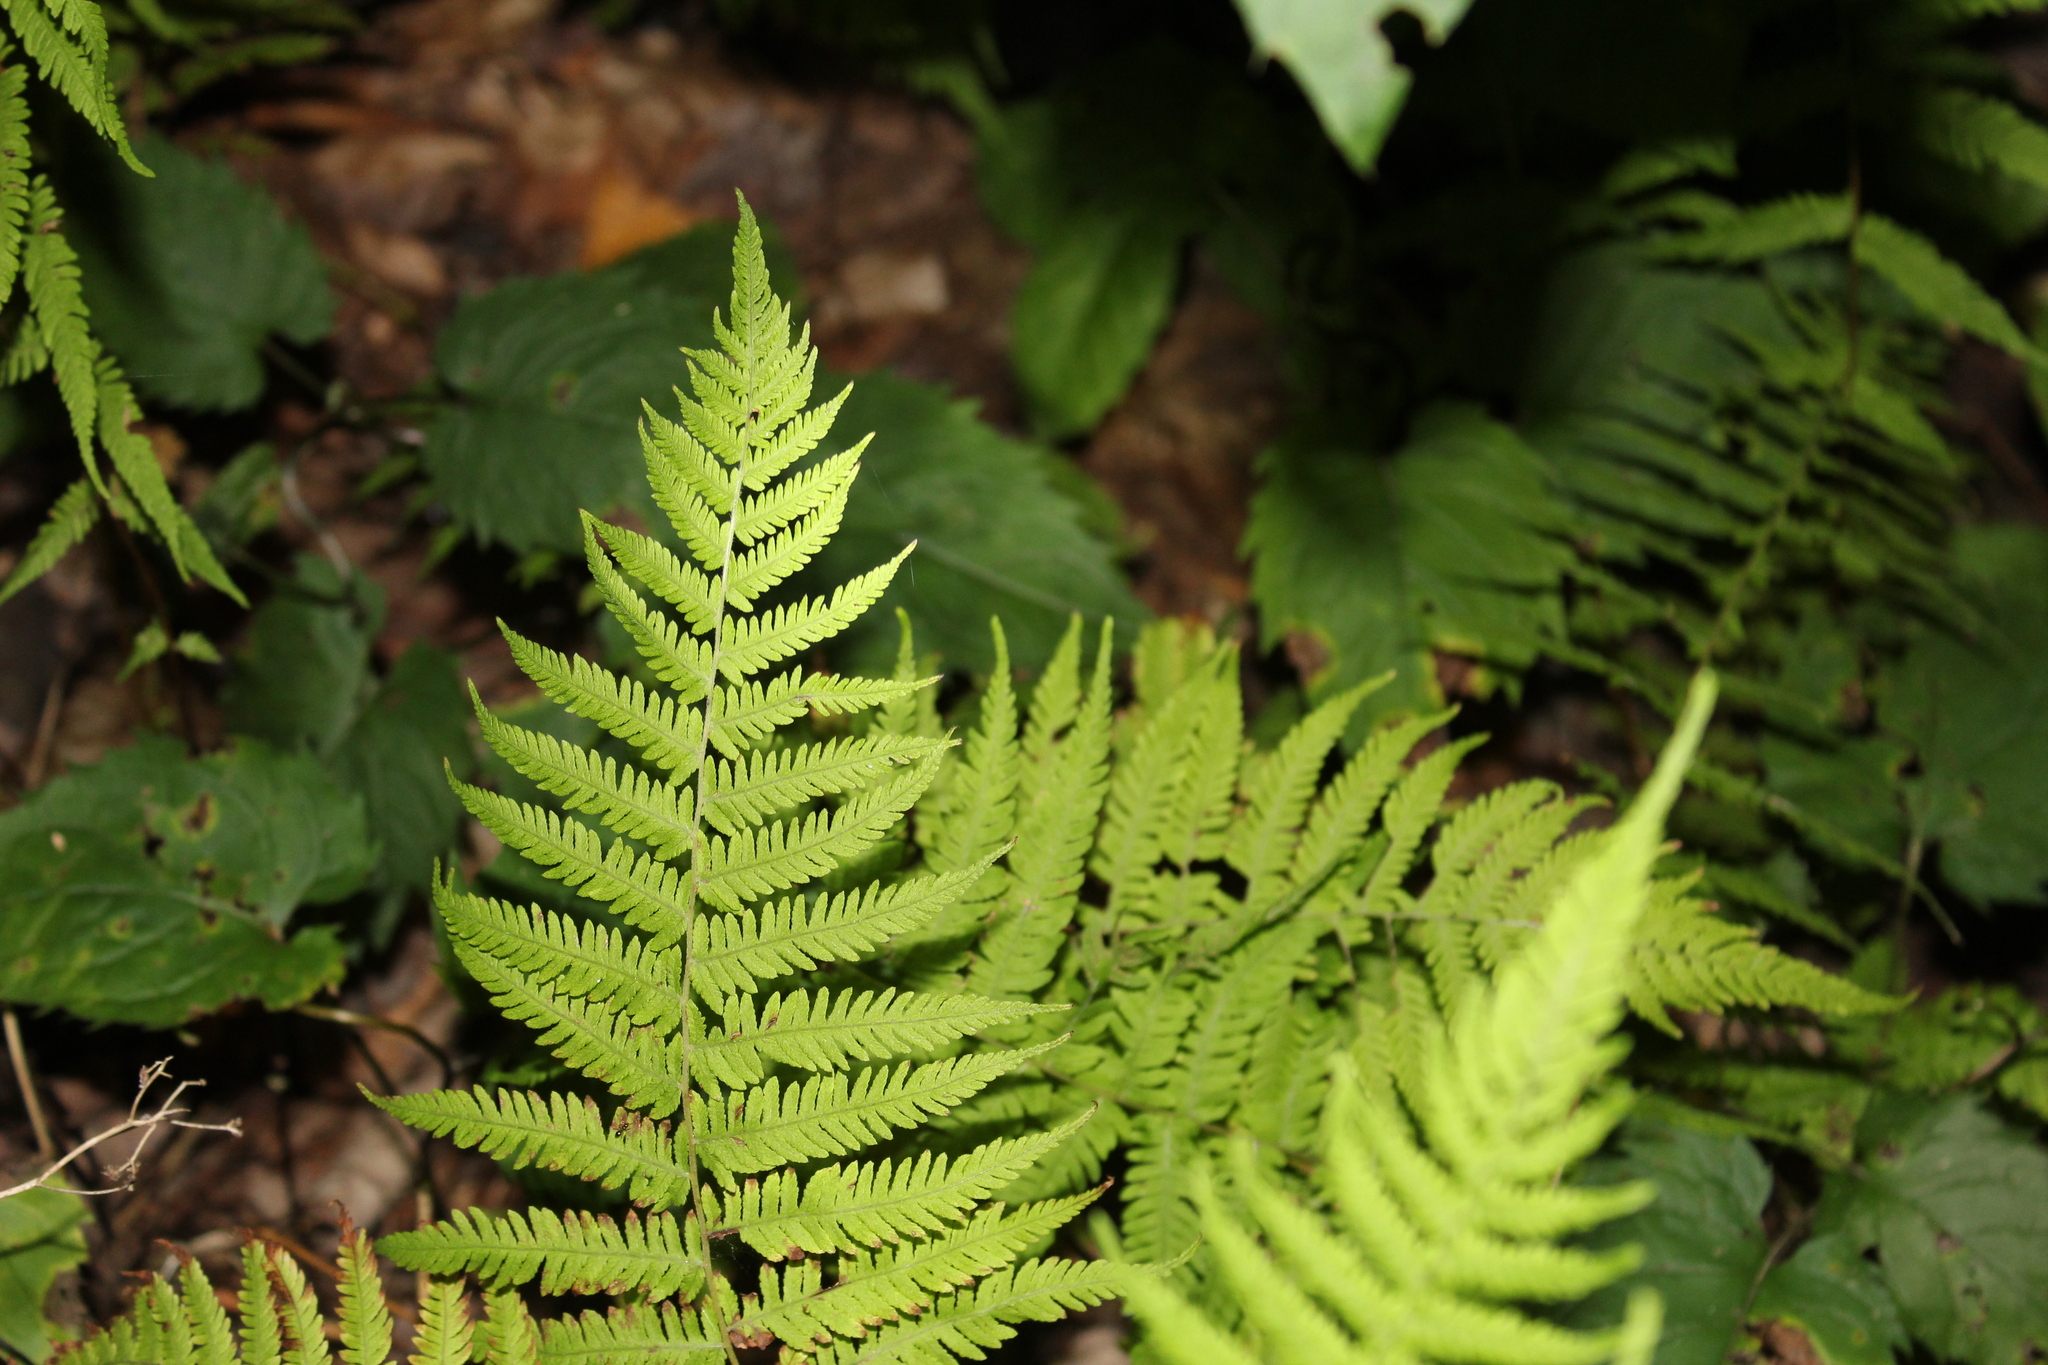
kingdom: Plantae
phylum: Tracheophyta
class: Polypodiopsida
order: Polypodiales
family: Thelypteridaceae
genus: Amauropelta
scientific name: Amauropelta noveboracensis
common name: New york fern
